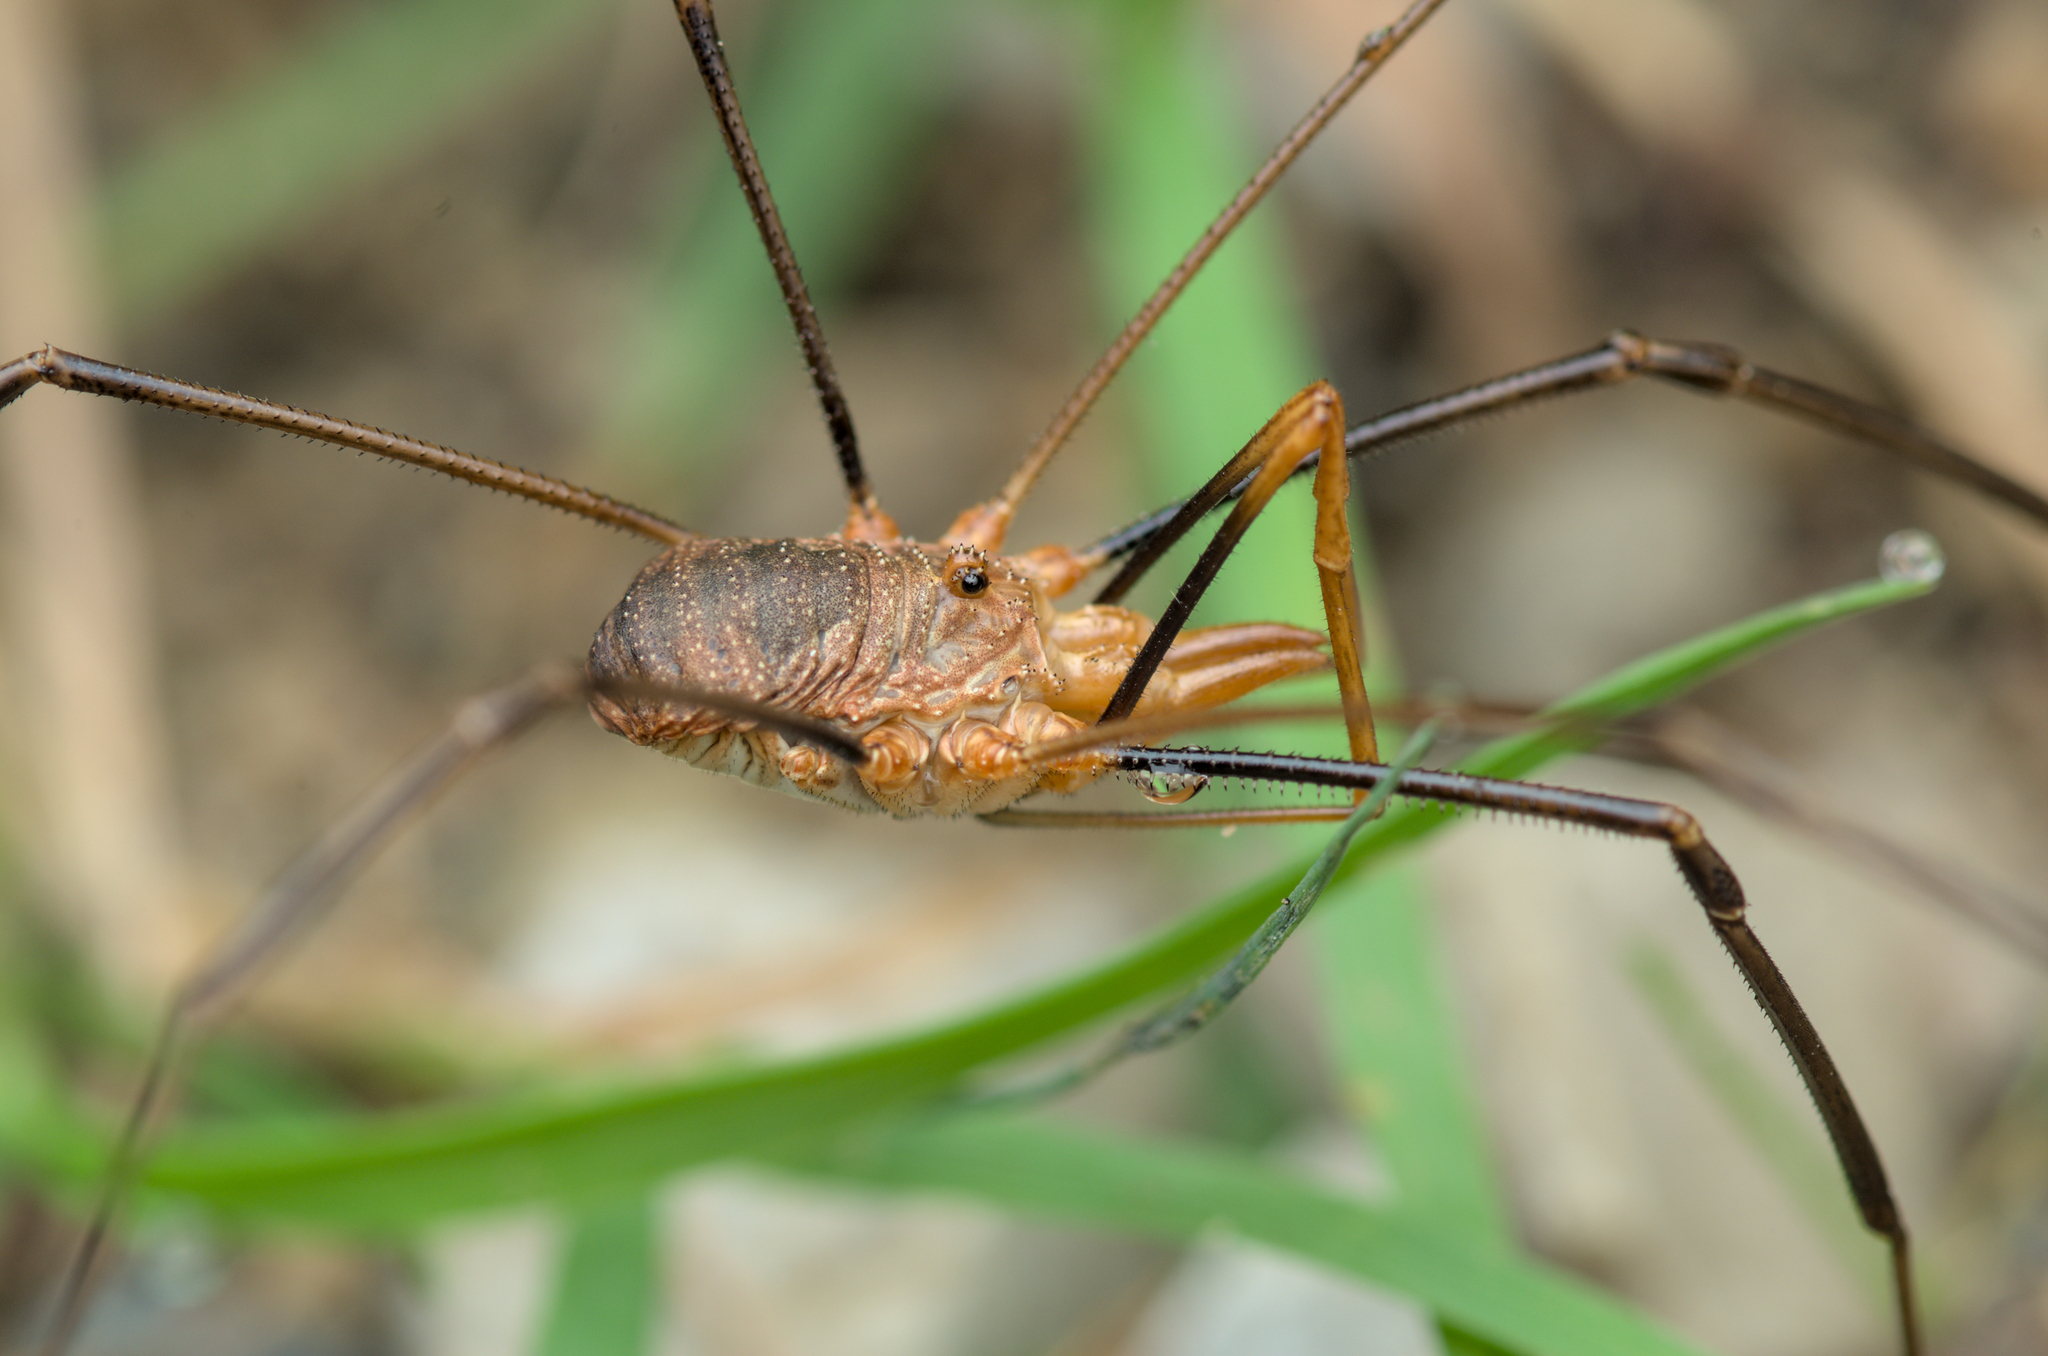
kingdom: Animalia
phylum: Arthropoda
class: Arachnida
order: Opiliones
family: Phalangiidae
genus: Phalangium
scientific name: Phalangium opilio
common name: Daddy longleg
